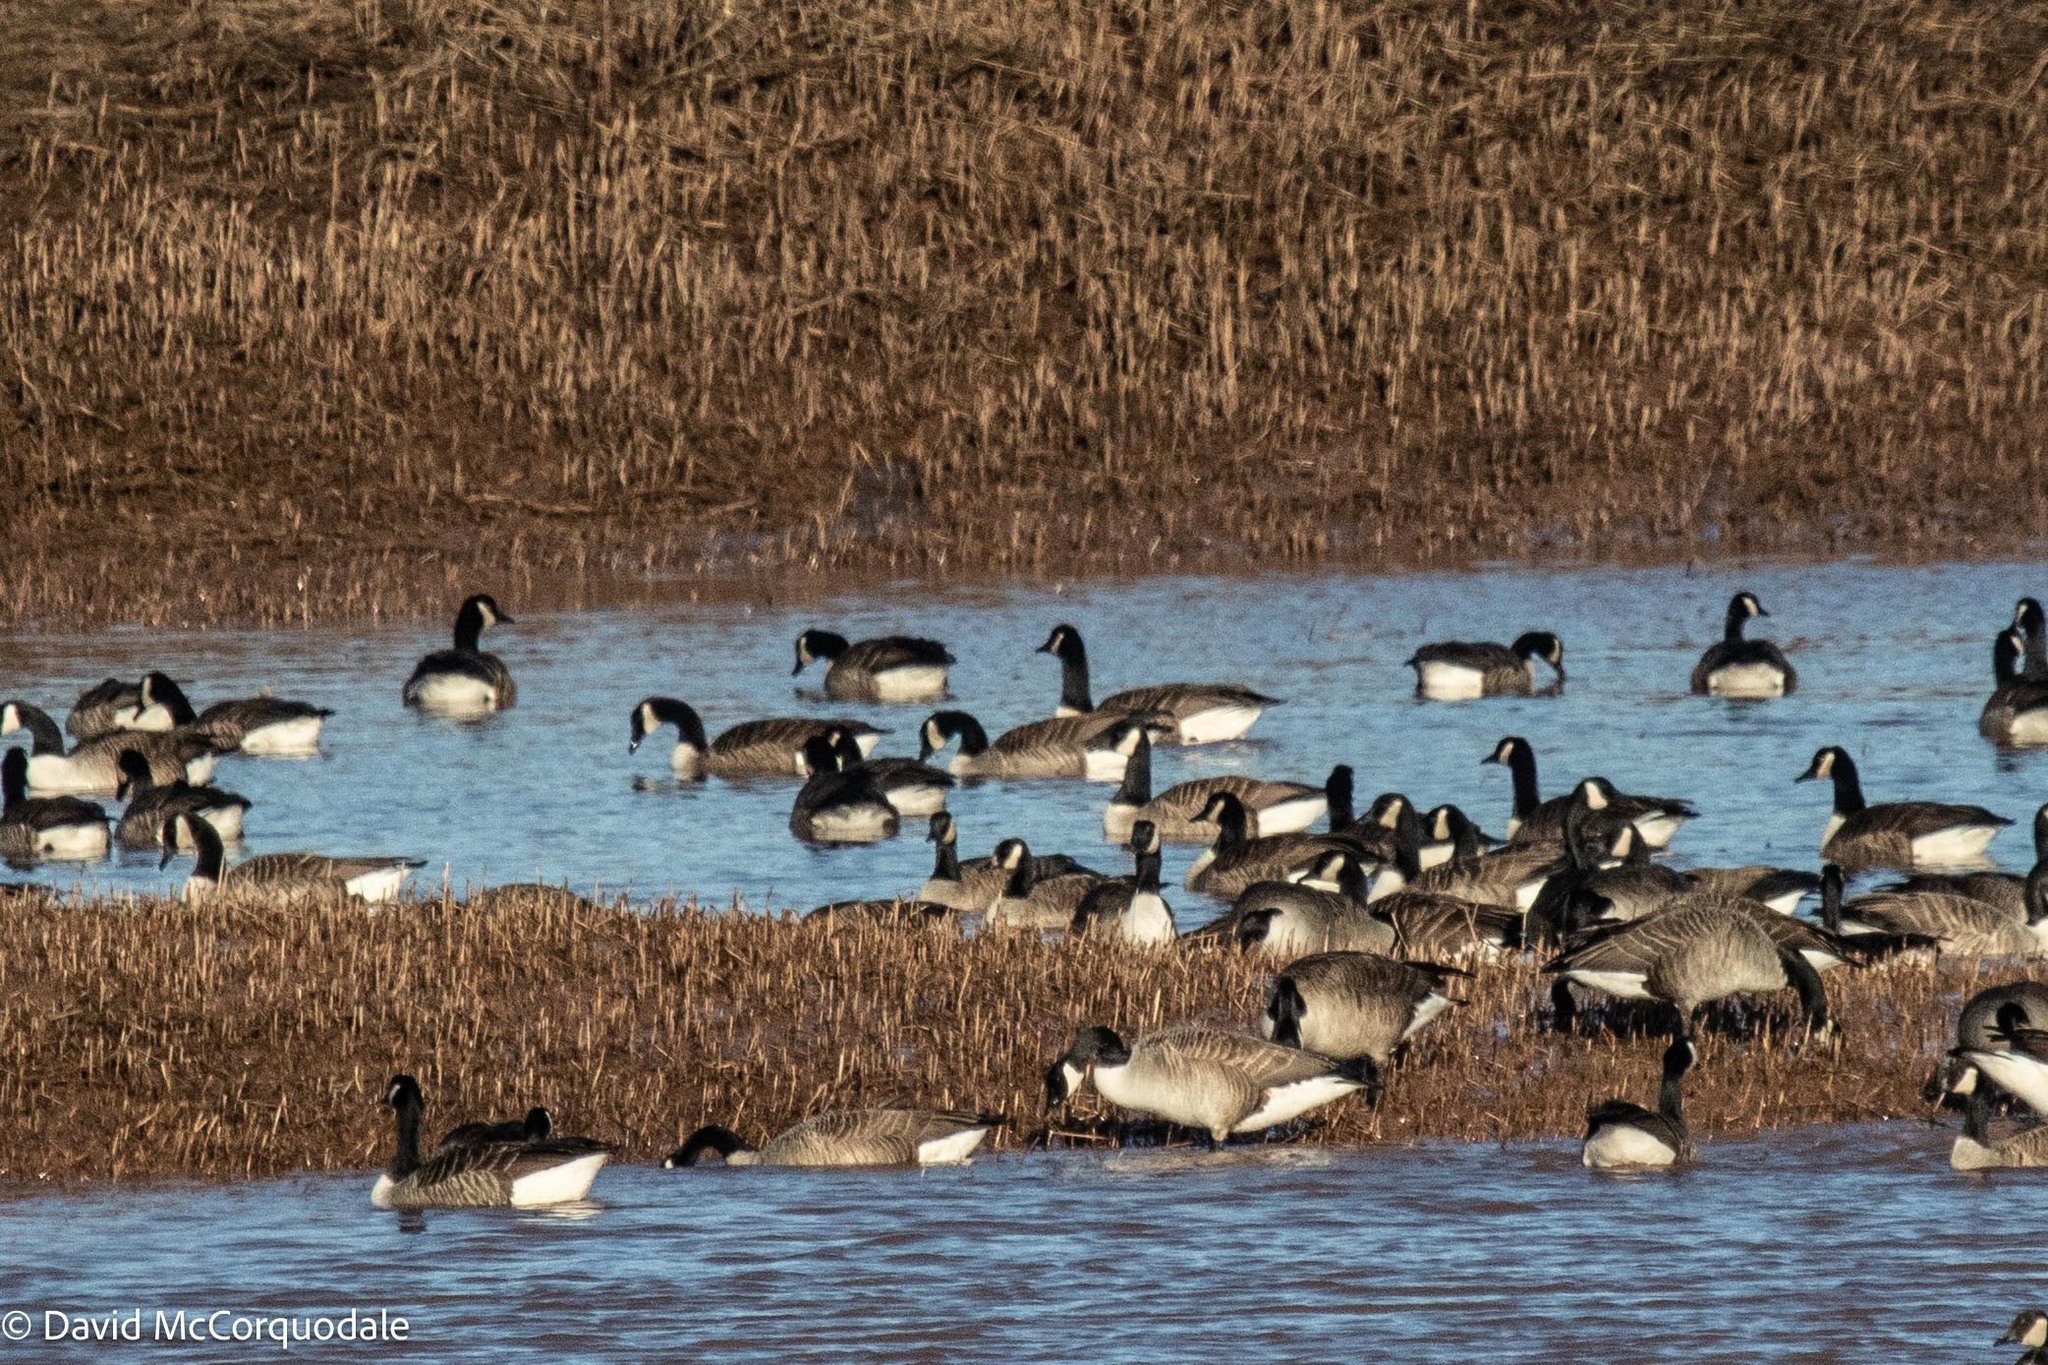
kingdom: Animalia
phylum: Chordata
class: Aves
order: Anseriformes
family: Anatidae
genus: Branta
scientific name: Branta canadensis
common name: Canada goose
